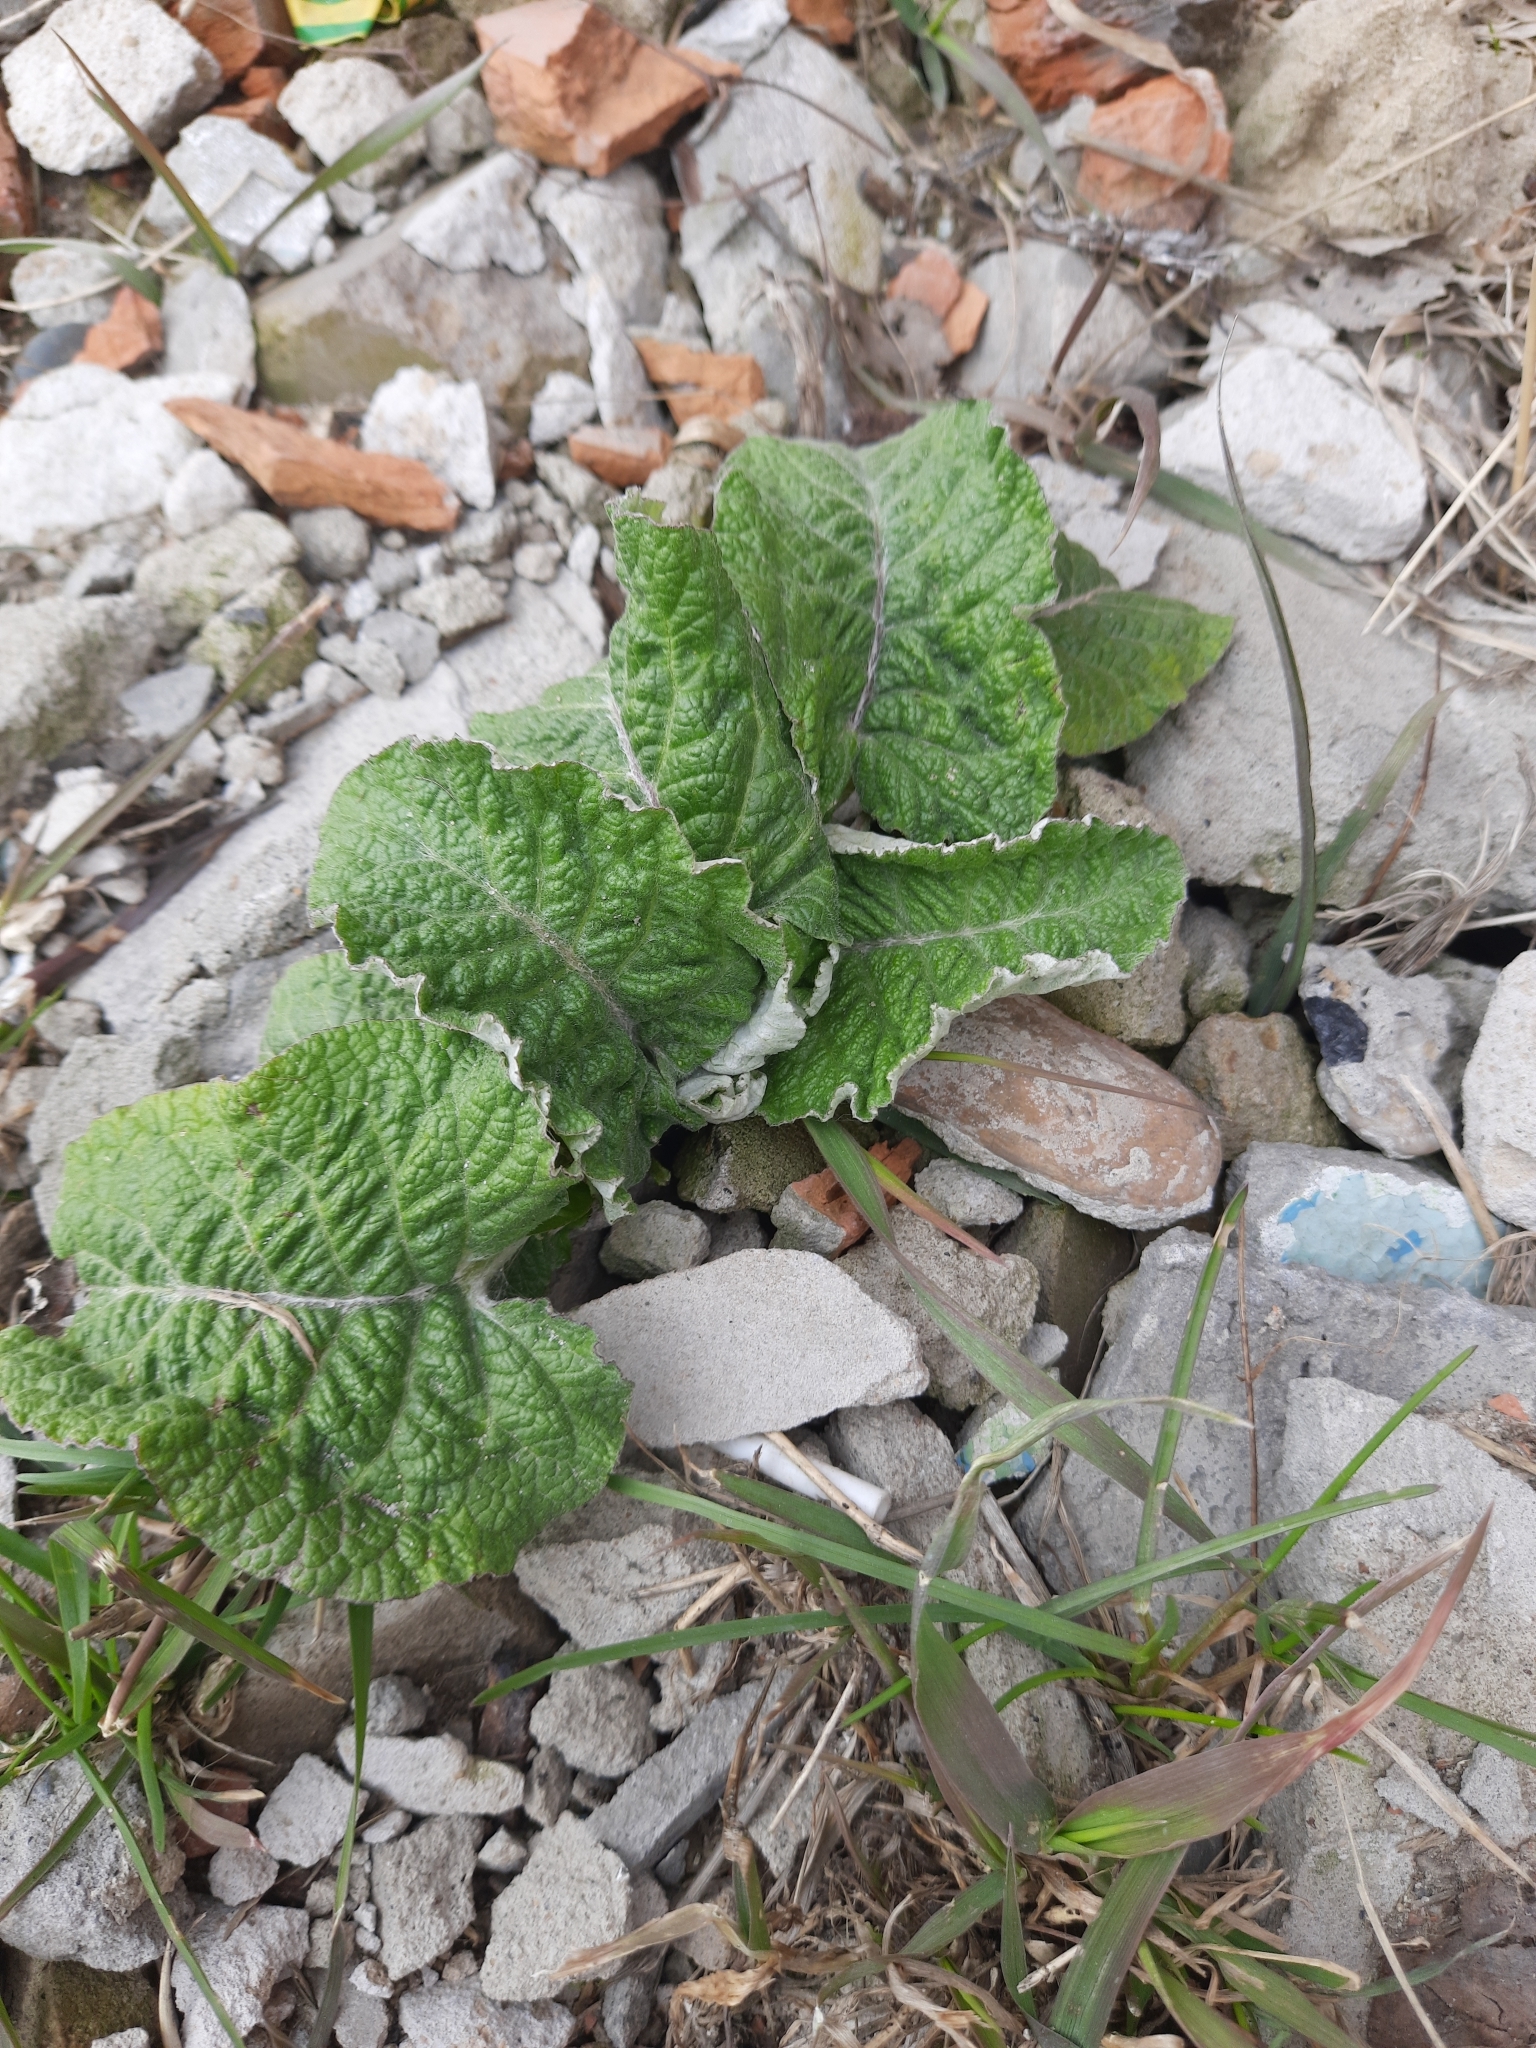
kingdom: Plantae
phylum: Tracheophyta
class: Magnoliopsida
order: Asterales
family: Asteraceae
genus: Arctium
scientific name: Arctium tomentosum
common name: Woolly burdock
